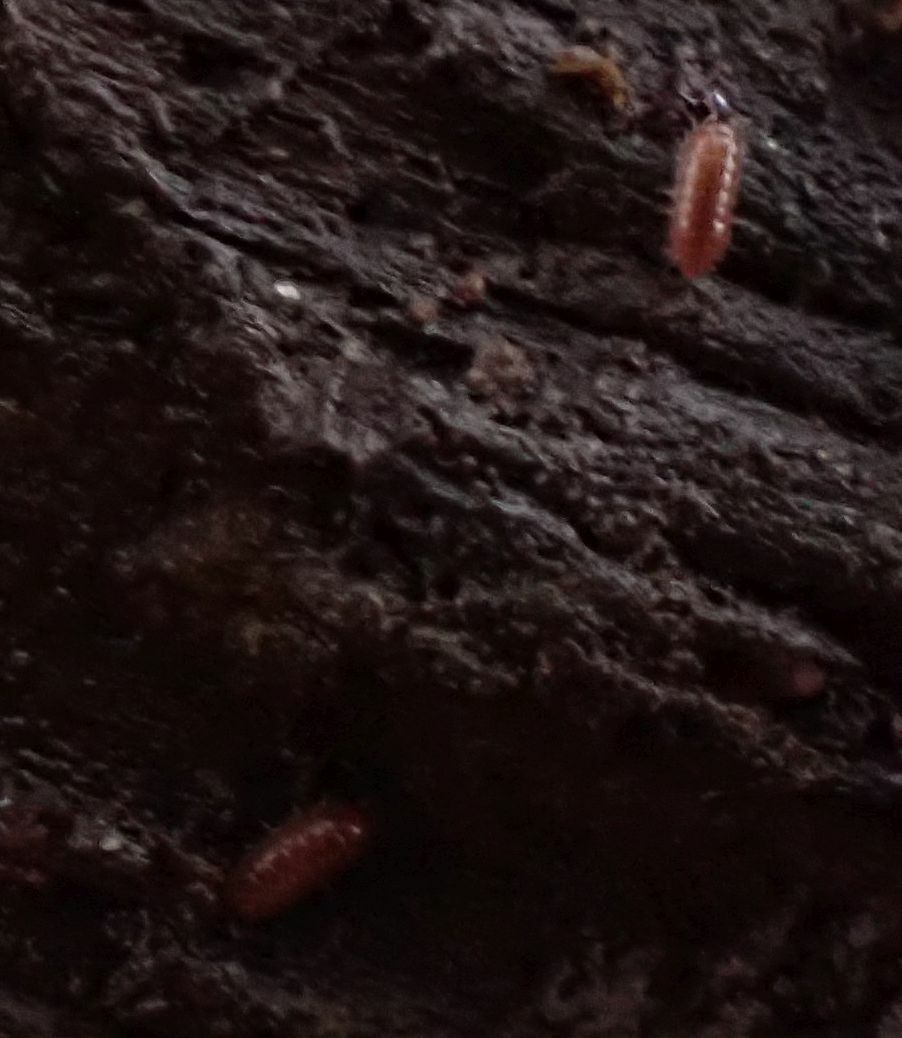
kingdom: Animalia
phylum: Arthropoda
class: Malacostraca
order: Isopoda
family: Trichoniscidae
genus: Trichoniscus
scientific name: Trichoniscus
